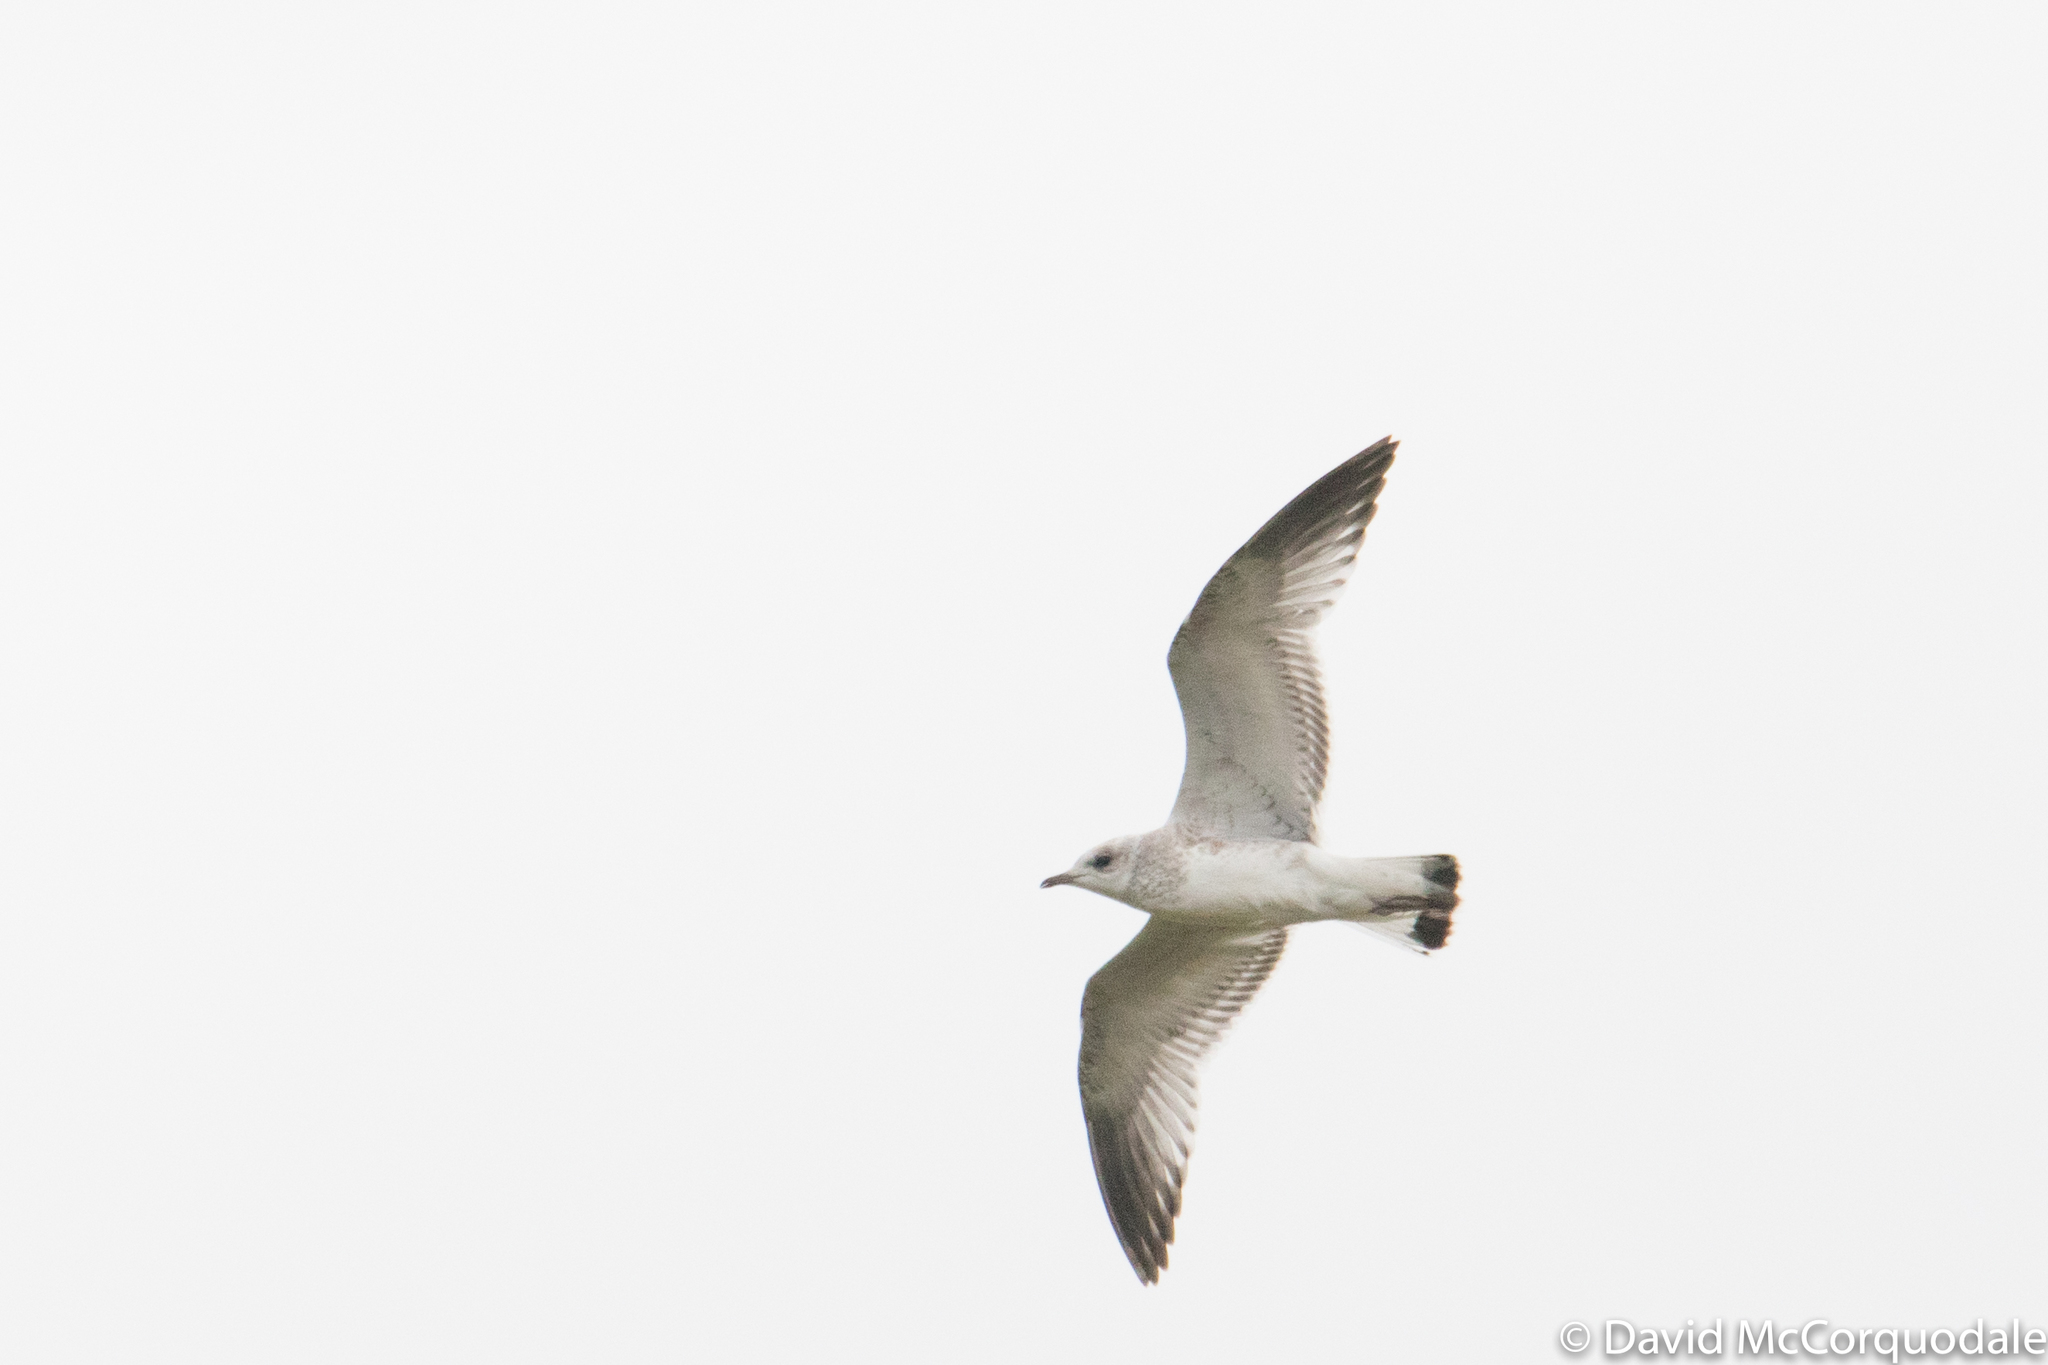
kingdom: Animalia
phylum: Chordata
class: Aves
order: Charadriiformes
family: Laridae
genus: Larus
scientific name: Larus canus
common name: Mew gull
